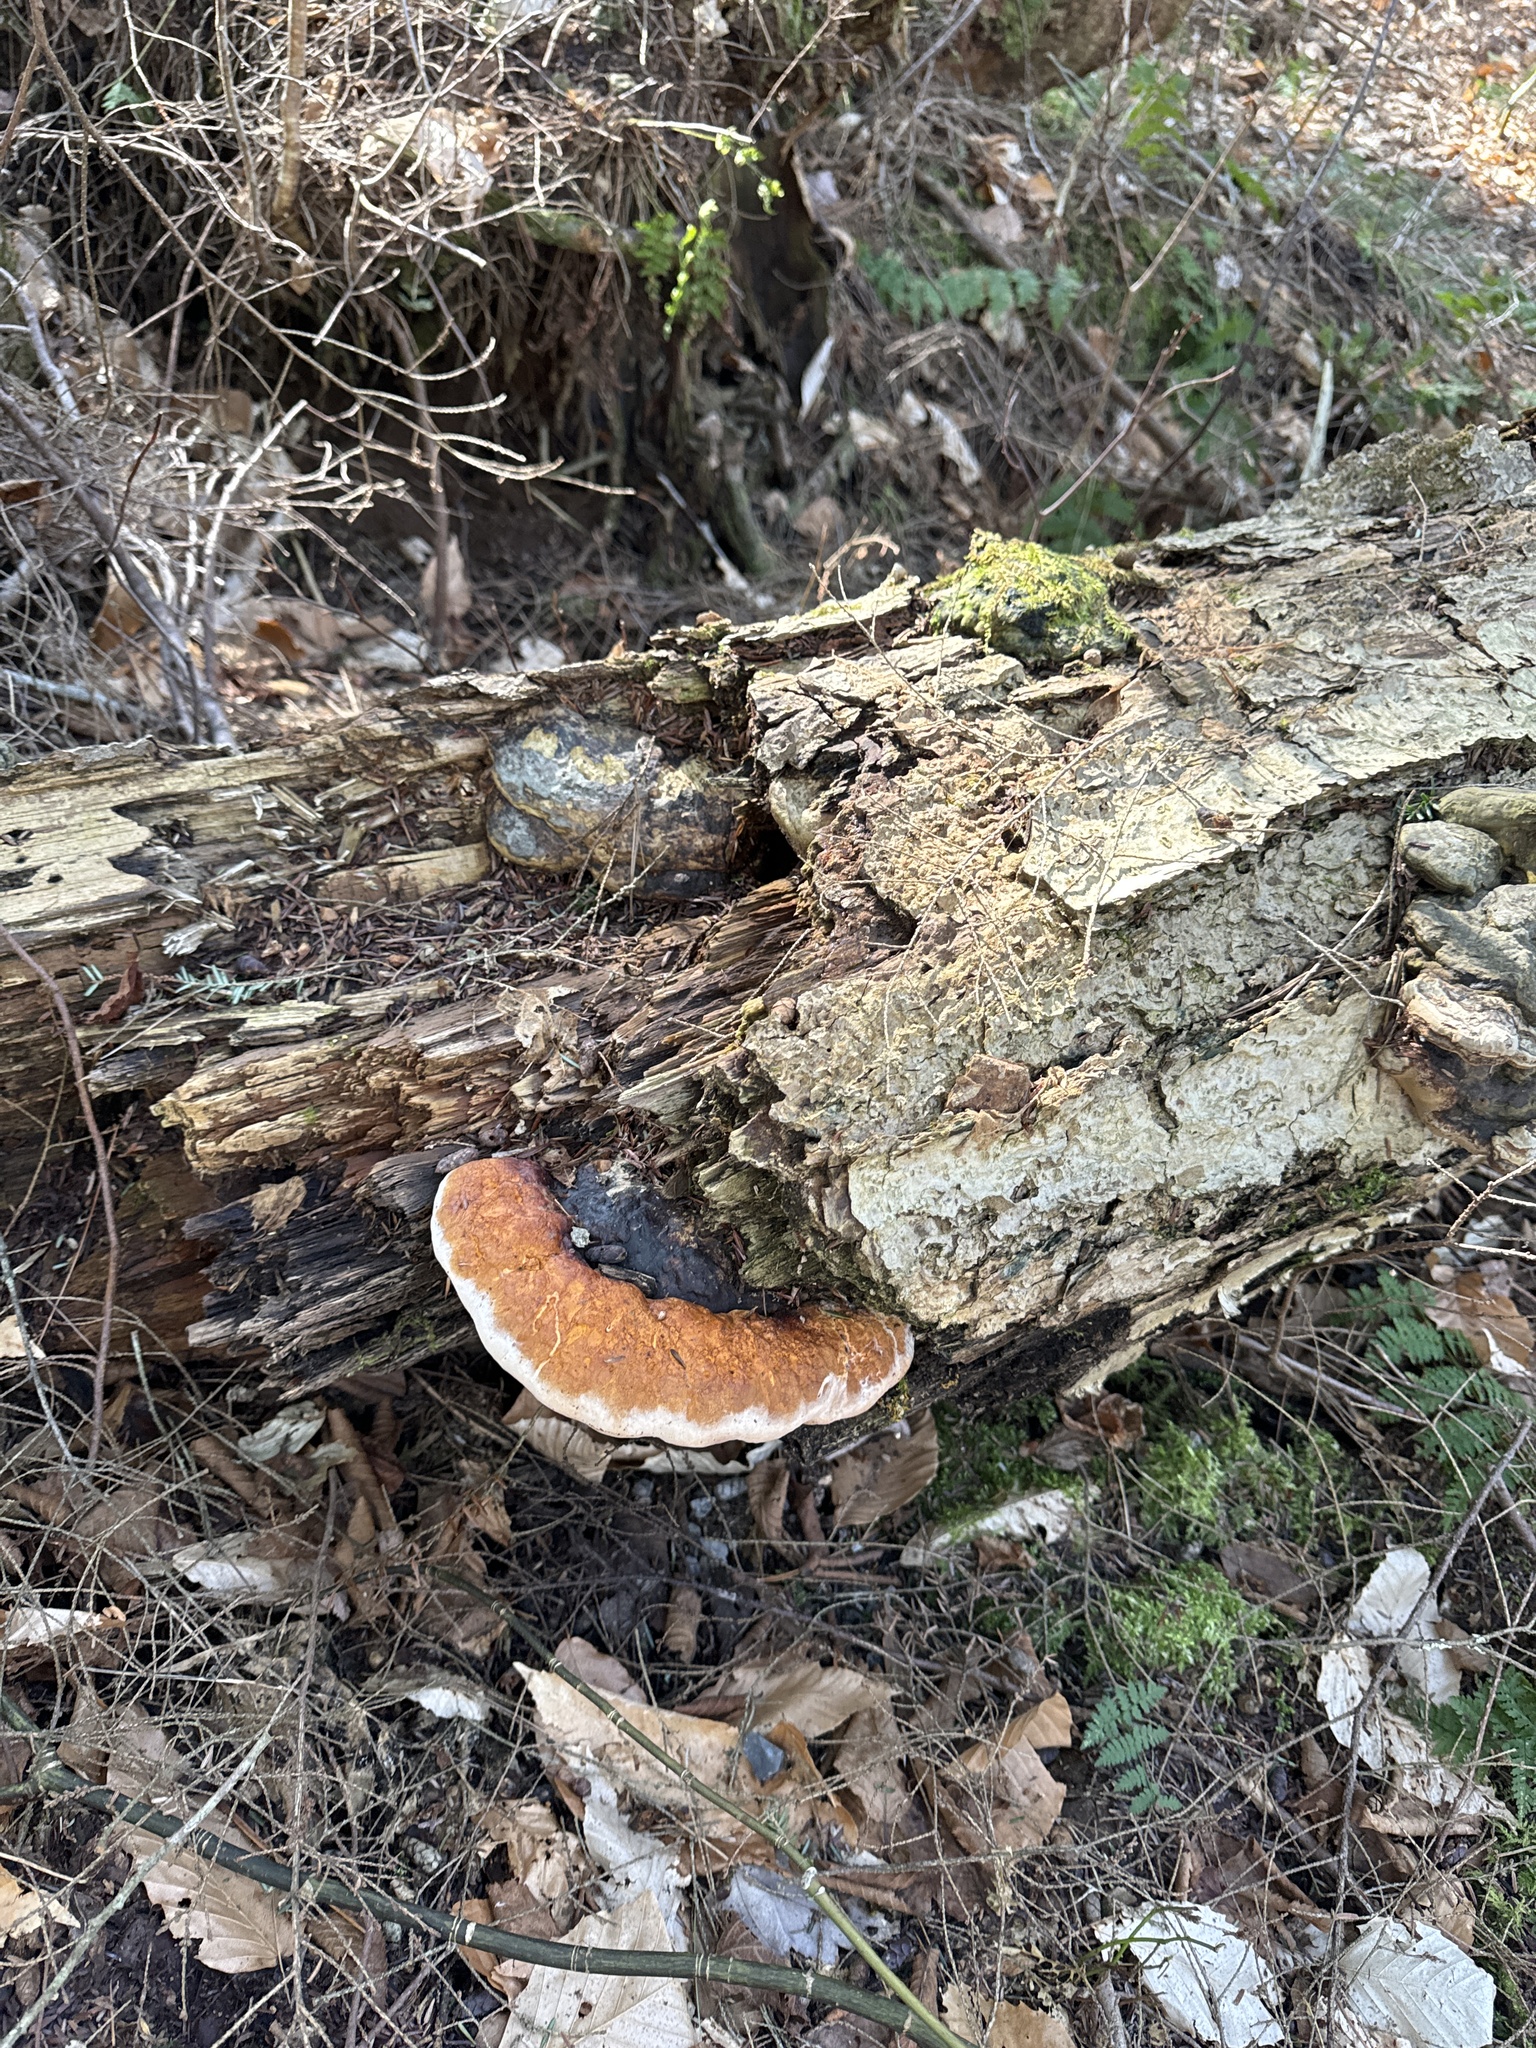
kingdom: Fungi
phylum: Basidiomycota
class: Agaricomycetes
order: Polyporales
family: Fomitopsidaceae
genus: Fomitopsis
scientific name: Fomitopsis mounceae
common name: Northern red belt
